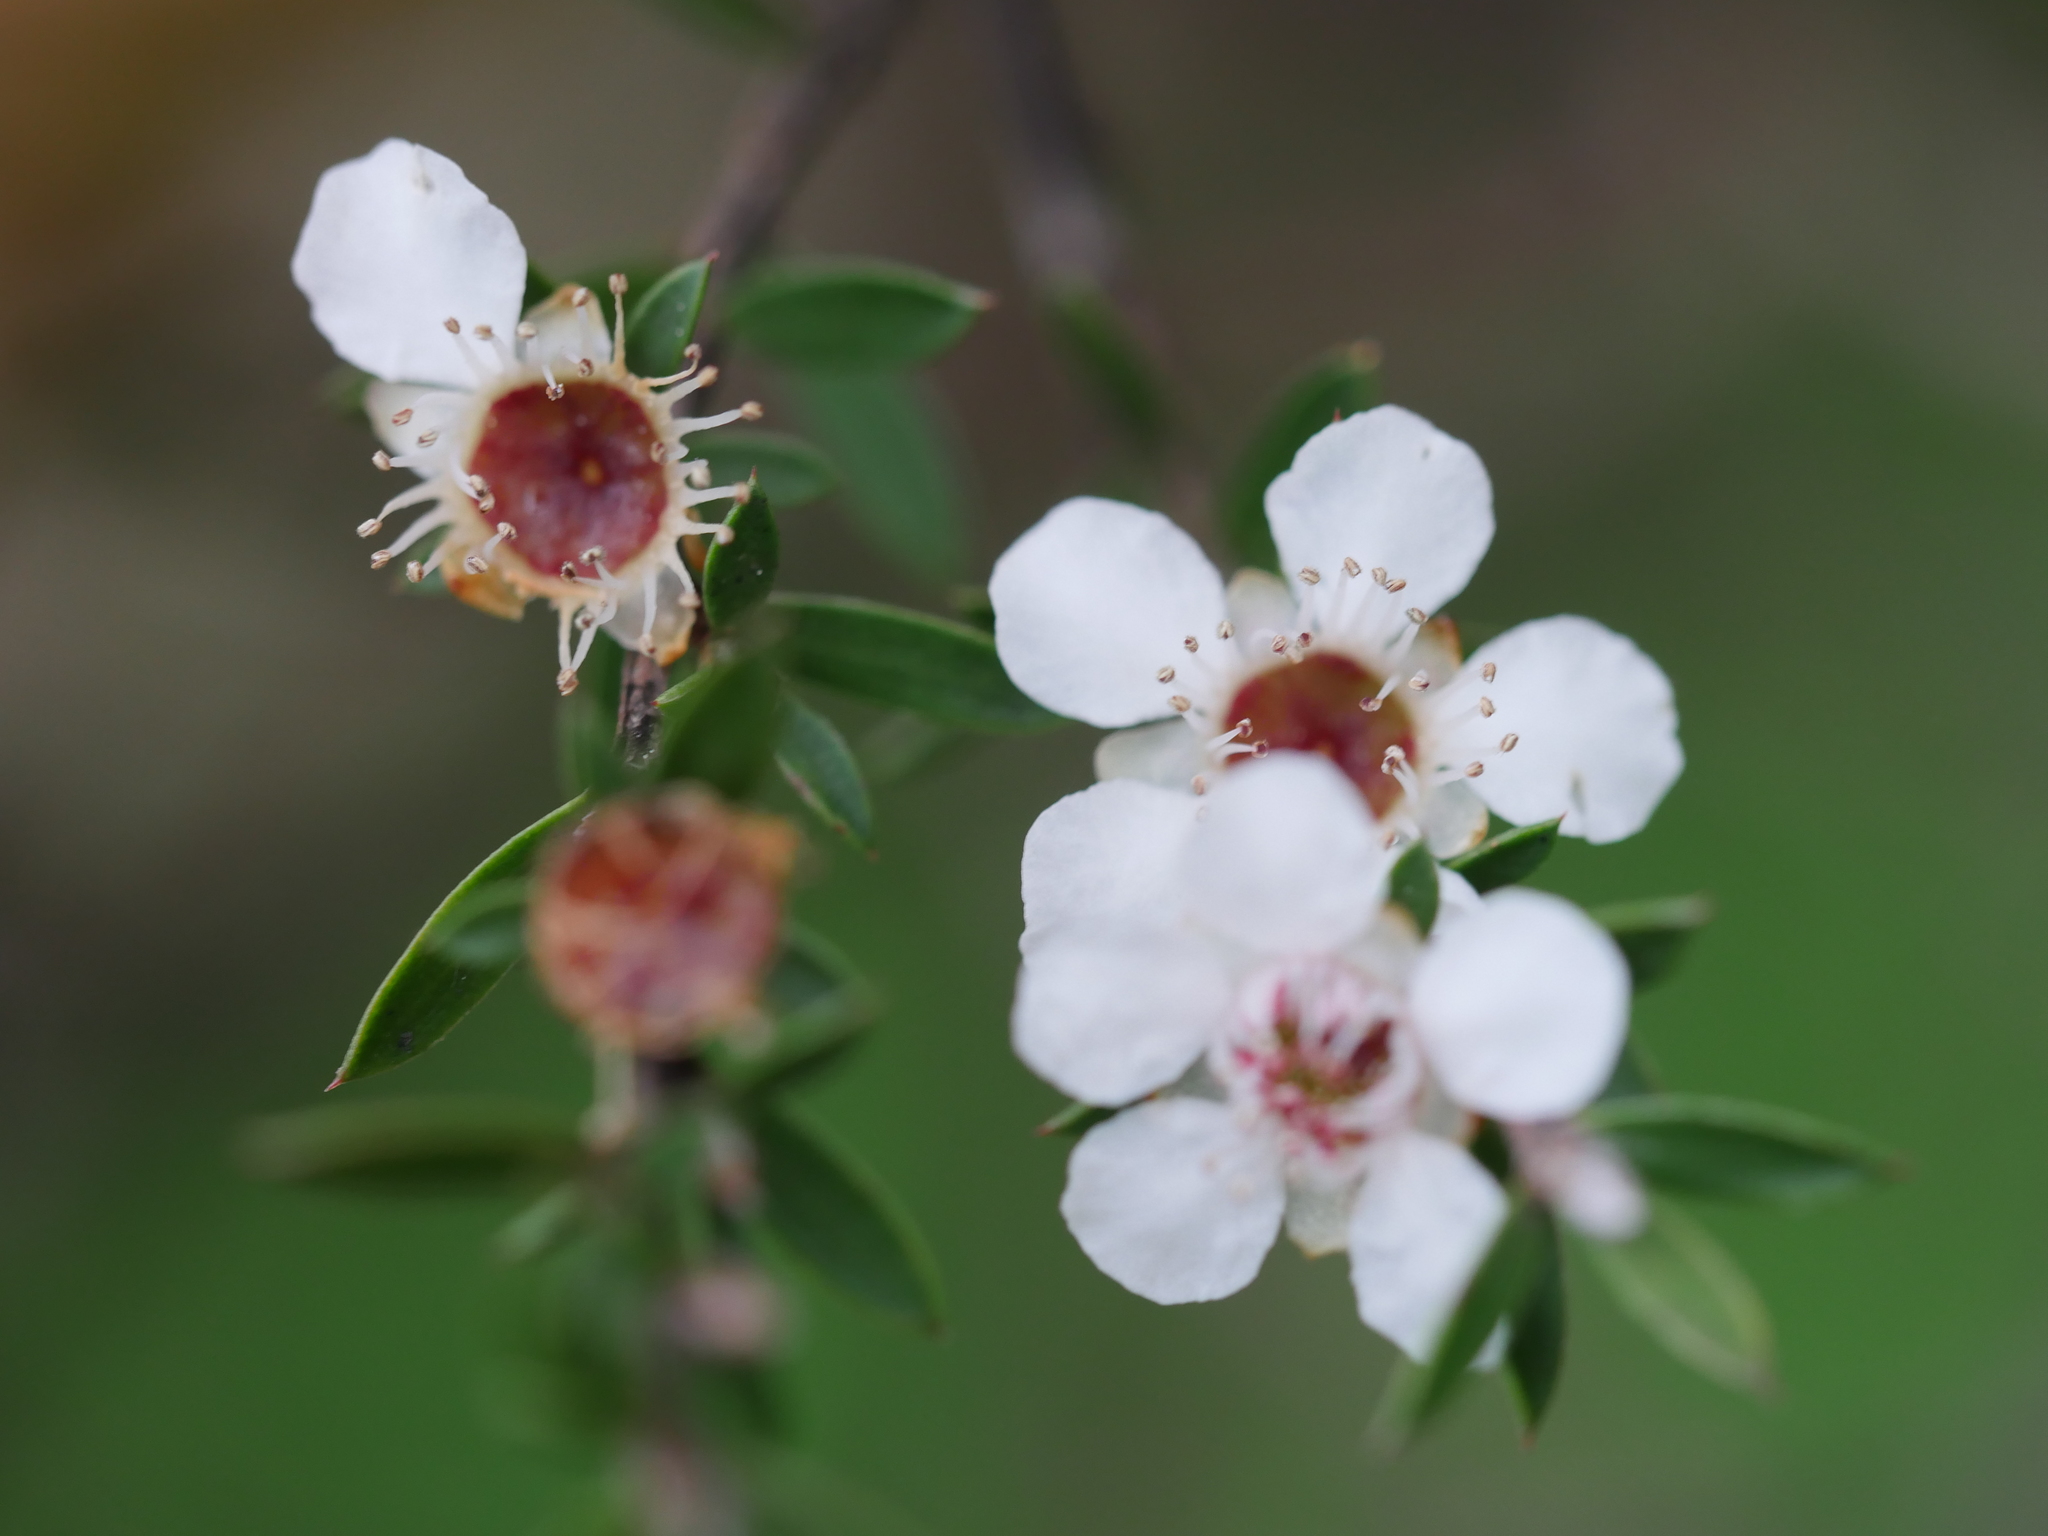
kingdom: Plantae
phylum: Tracheophyta
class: Magnoliopsida
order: Myrtales
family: Myrtaceae
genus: Leptospermum
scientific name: Leptospermum scoparium
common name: Broom tea-tree
